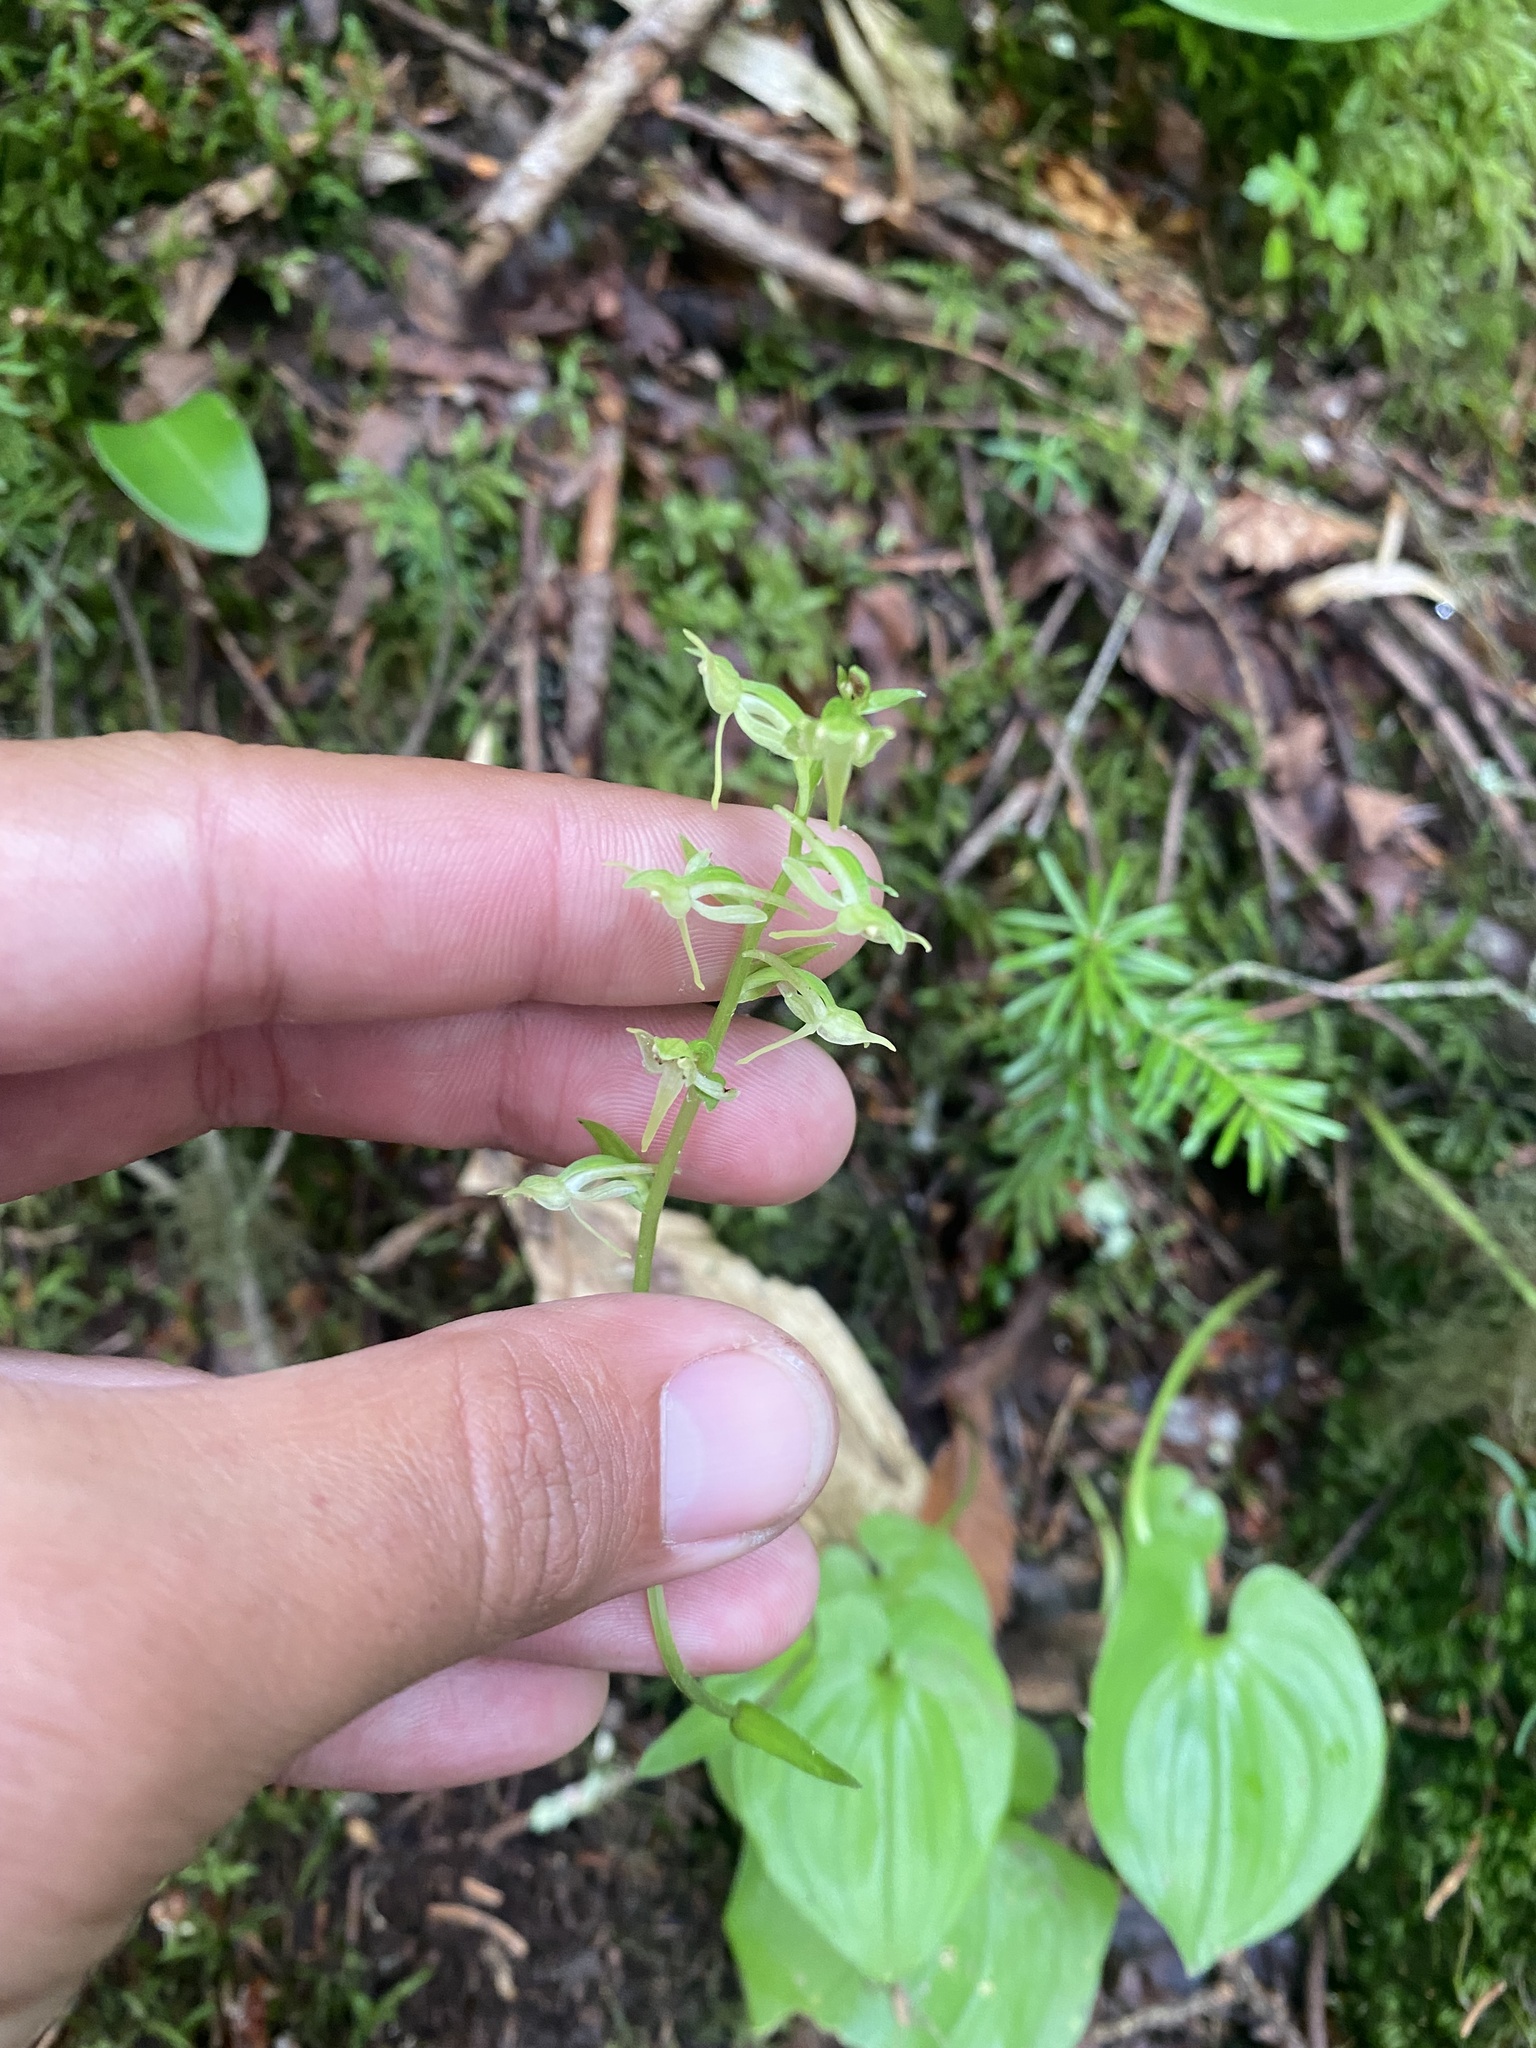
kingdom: Plantae
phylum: Tracheophyta
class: Liliopsida
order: Asparagales
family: Orchidaceae
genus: Platanthera
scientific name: Platanthera ophrydioides
